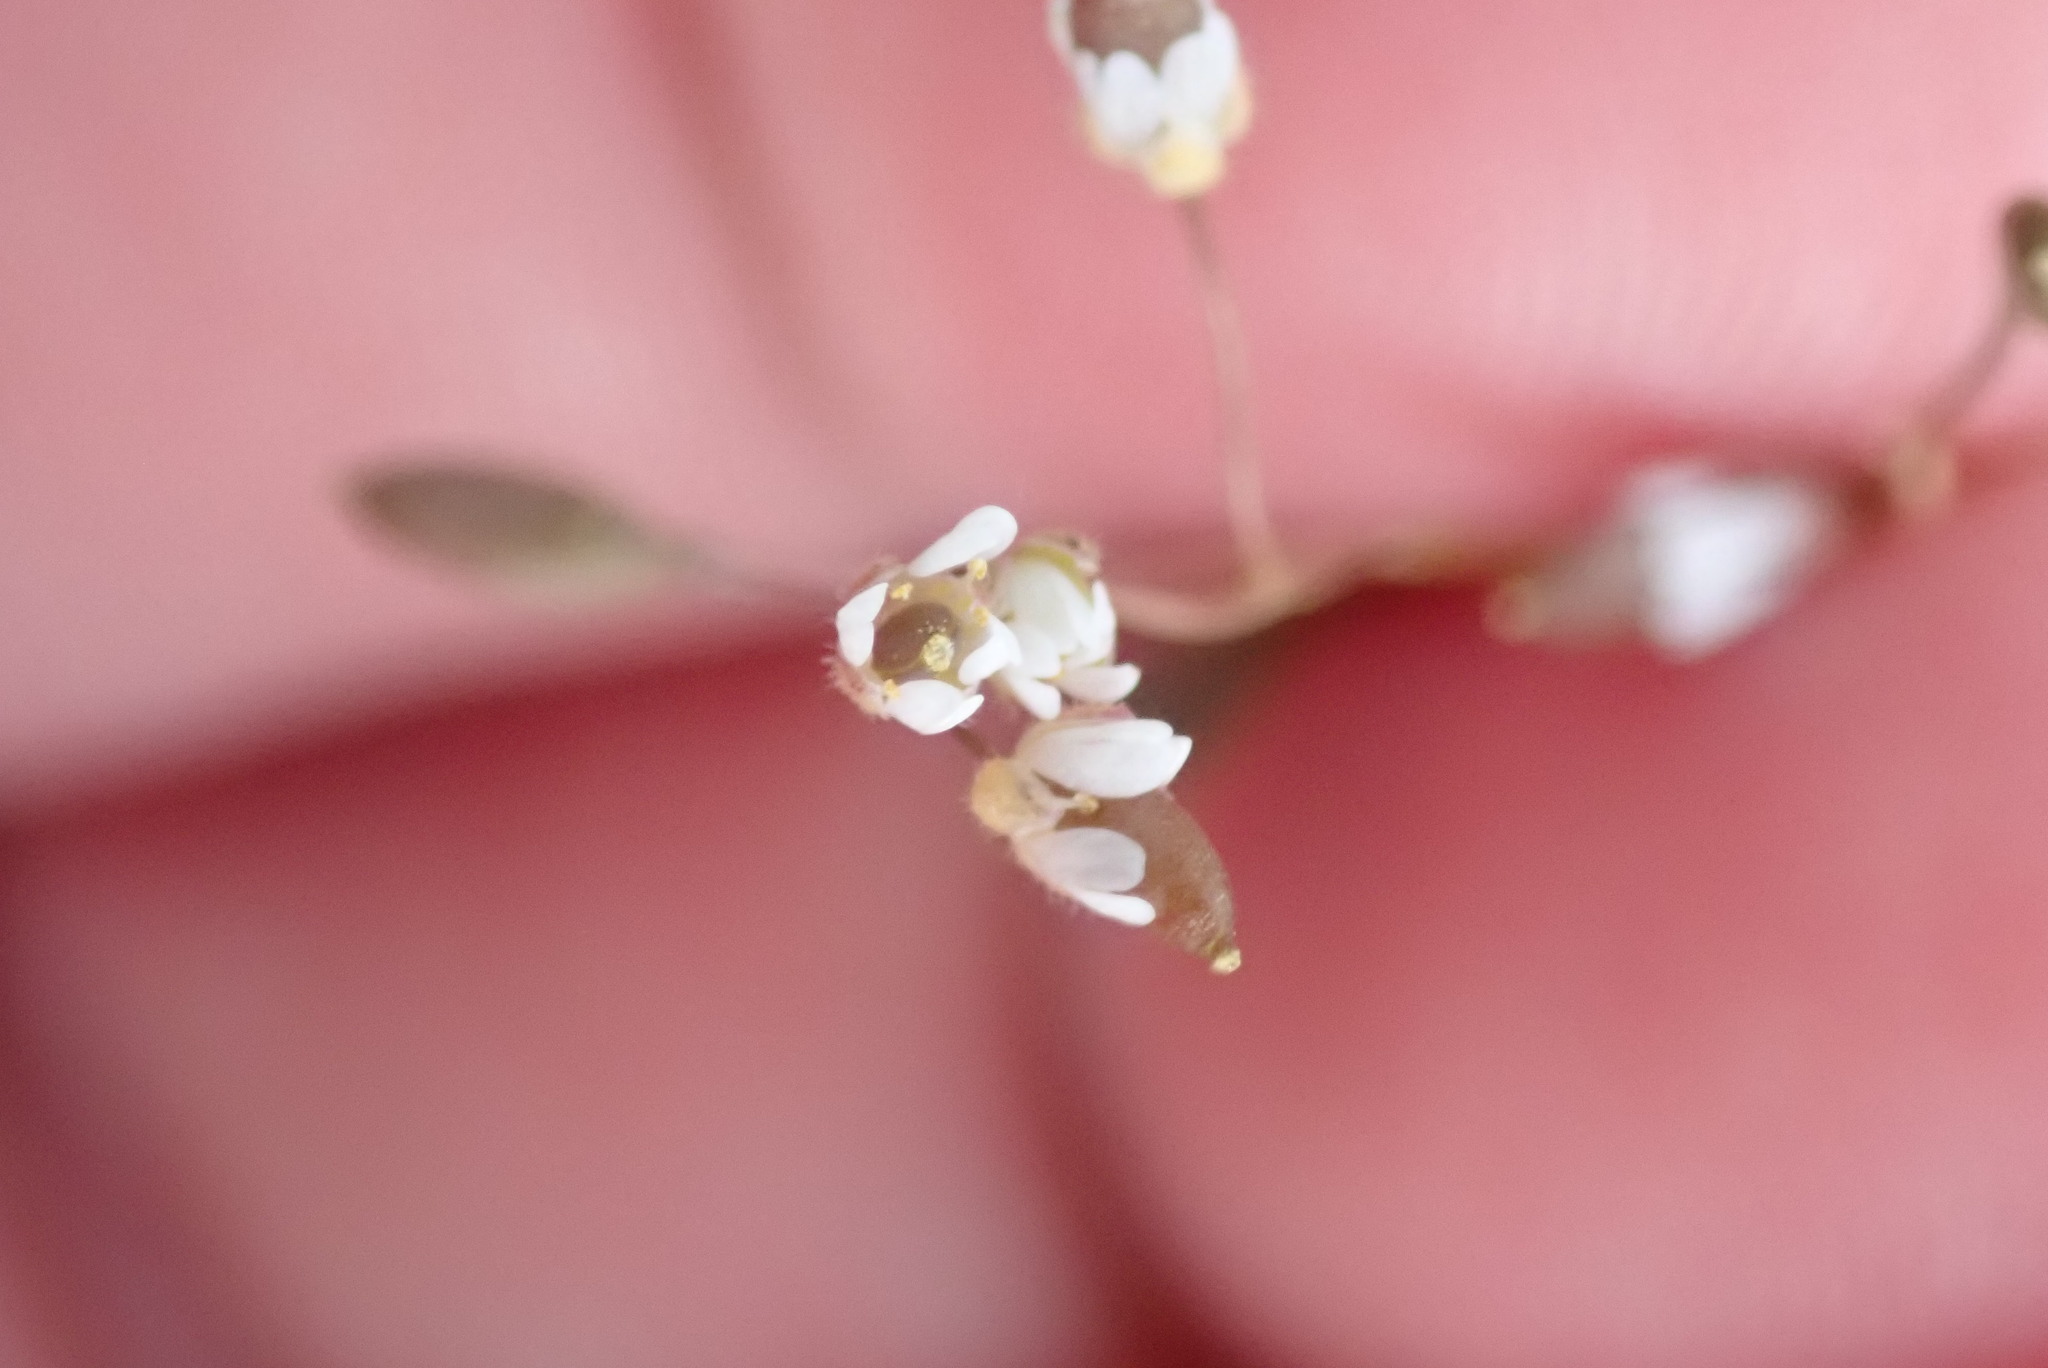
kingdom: Plantae
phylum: Tracheophyta
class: Magnoliopsida
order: Brassicales
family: Brassicaceae
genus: Draba
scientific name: Draba verna
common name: Spring draba
